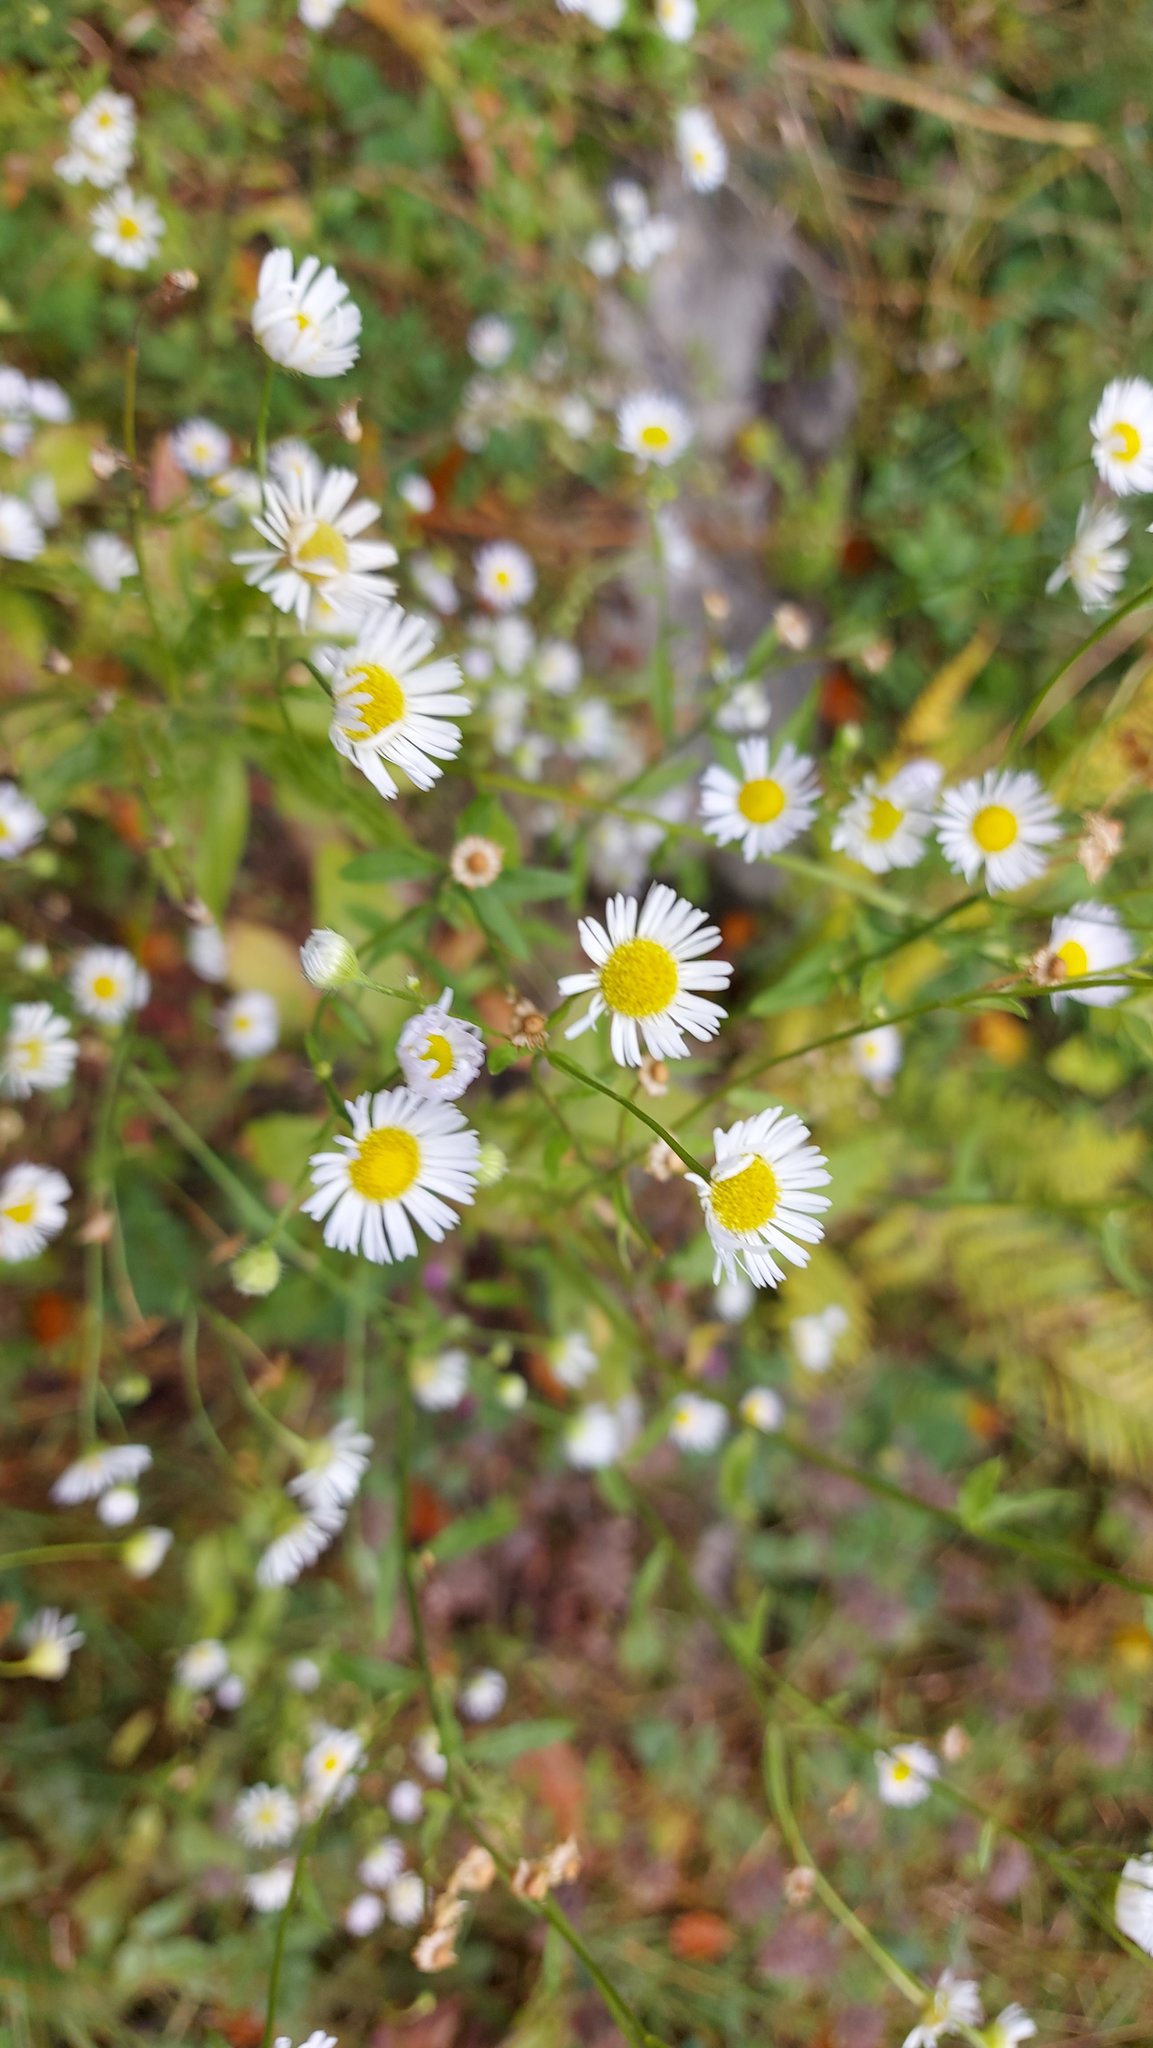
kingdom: Plantae
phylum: Tracheophyta
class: Magnoliopsida
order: Asterales
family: Asteraceae
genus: Erigeron
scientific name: Erigeron annuus
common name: Tall fleabane
